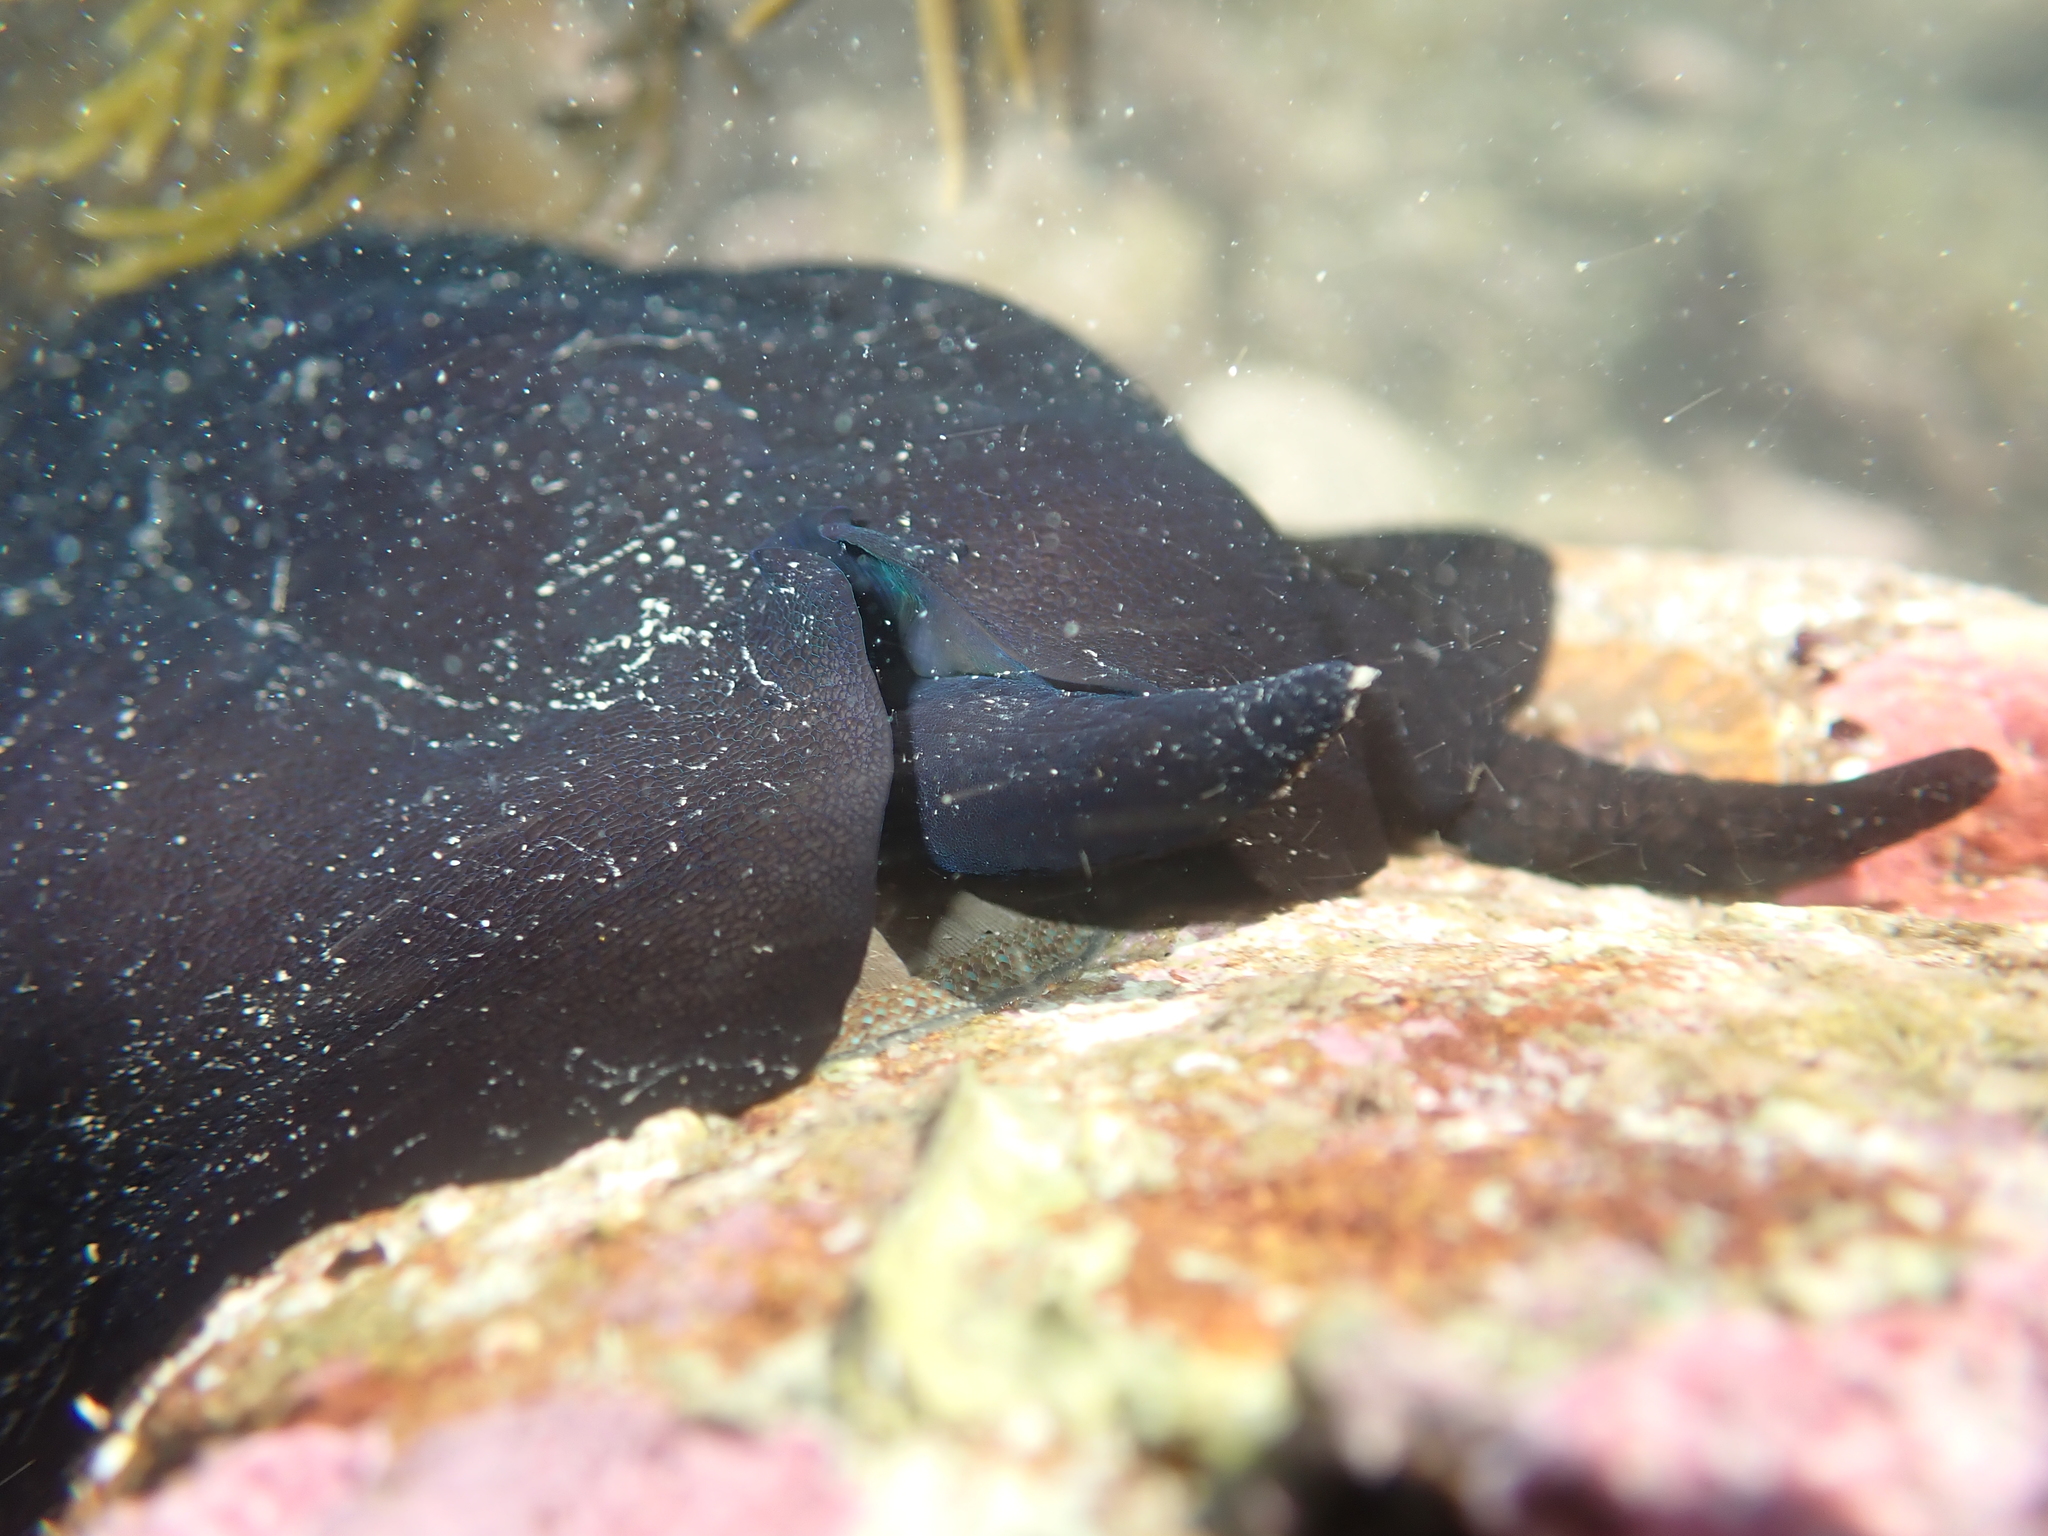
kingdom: Animalia
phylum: Mollusca
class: Gastropoda
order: Lepetellida
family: Fissurellidae
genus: Scutus
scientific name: Scutus breviculus
